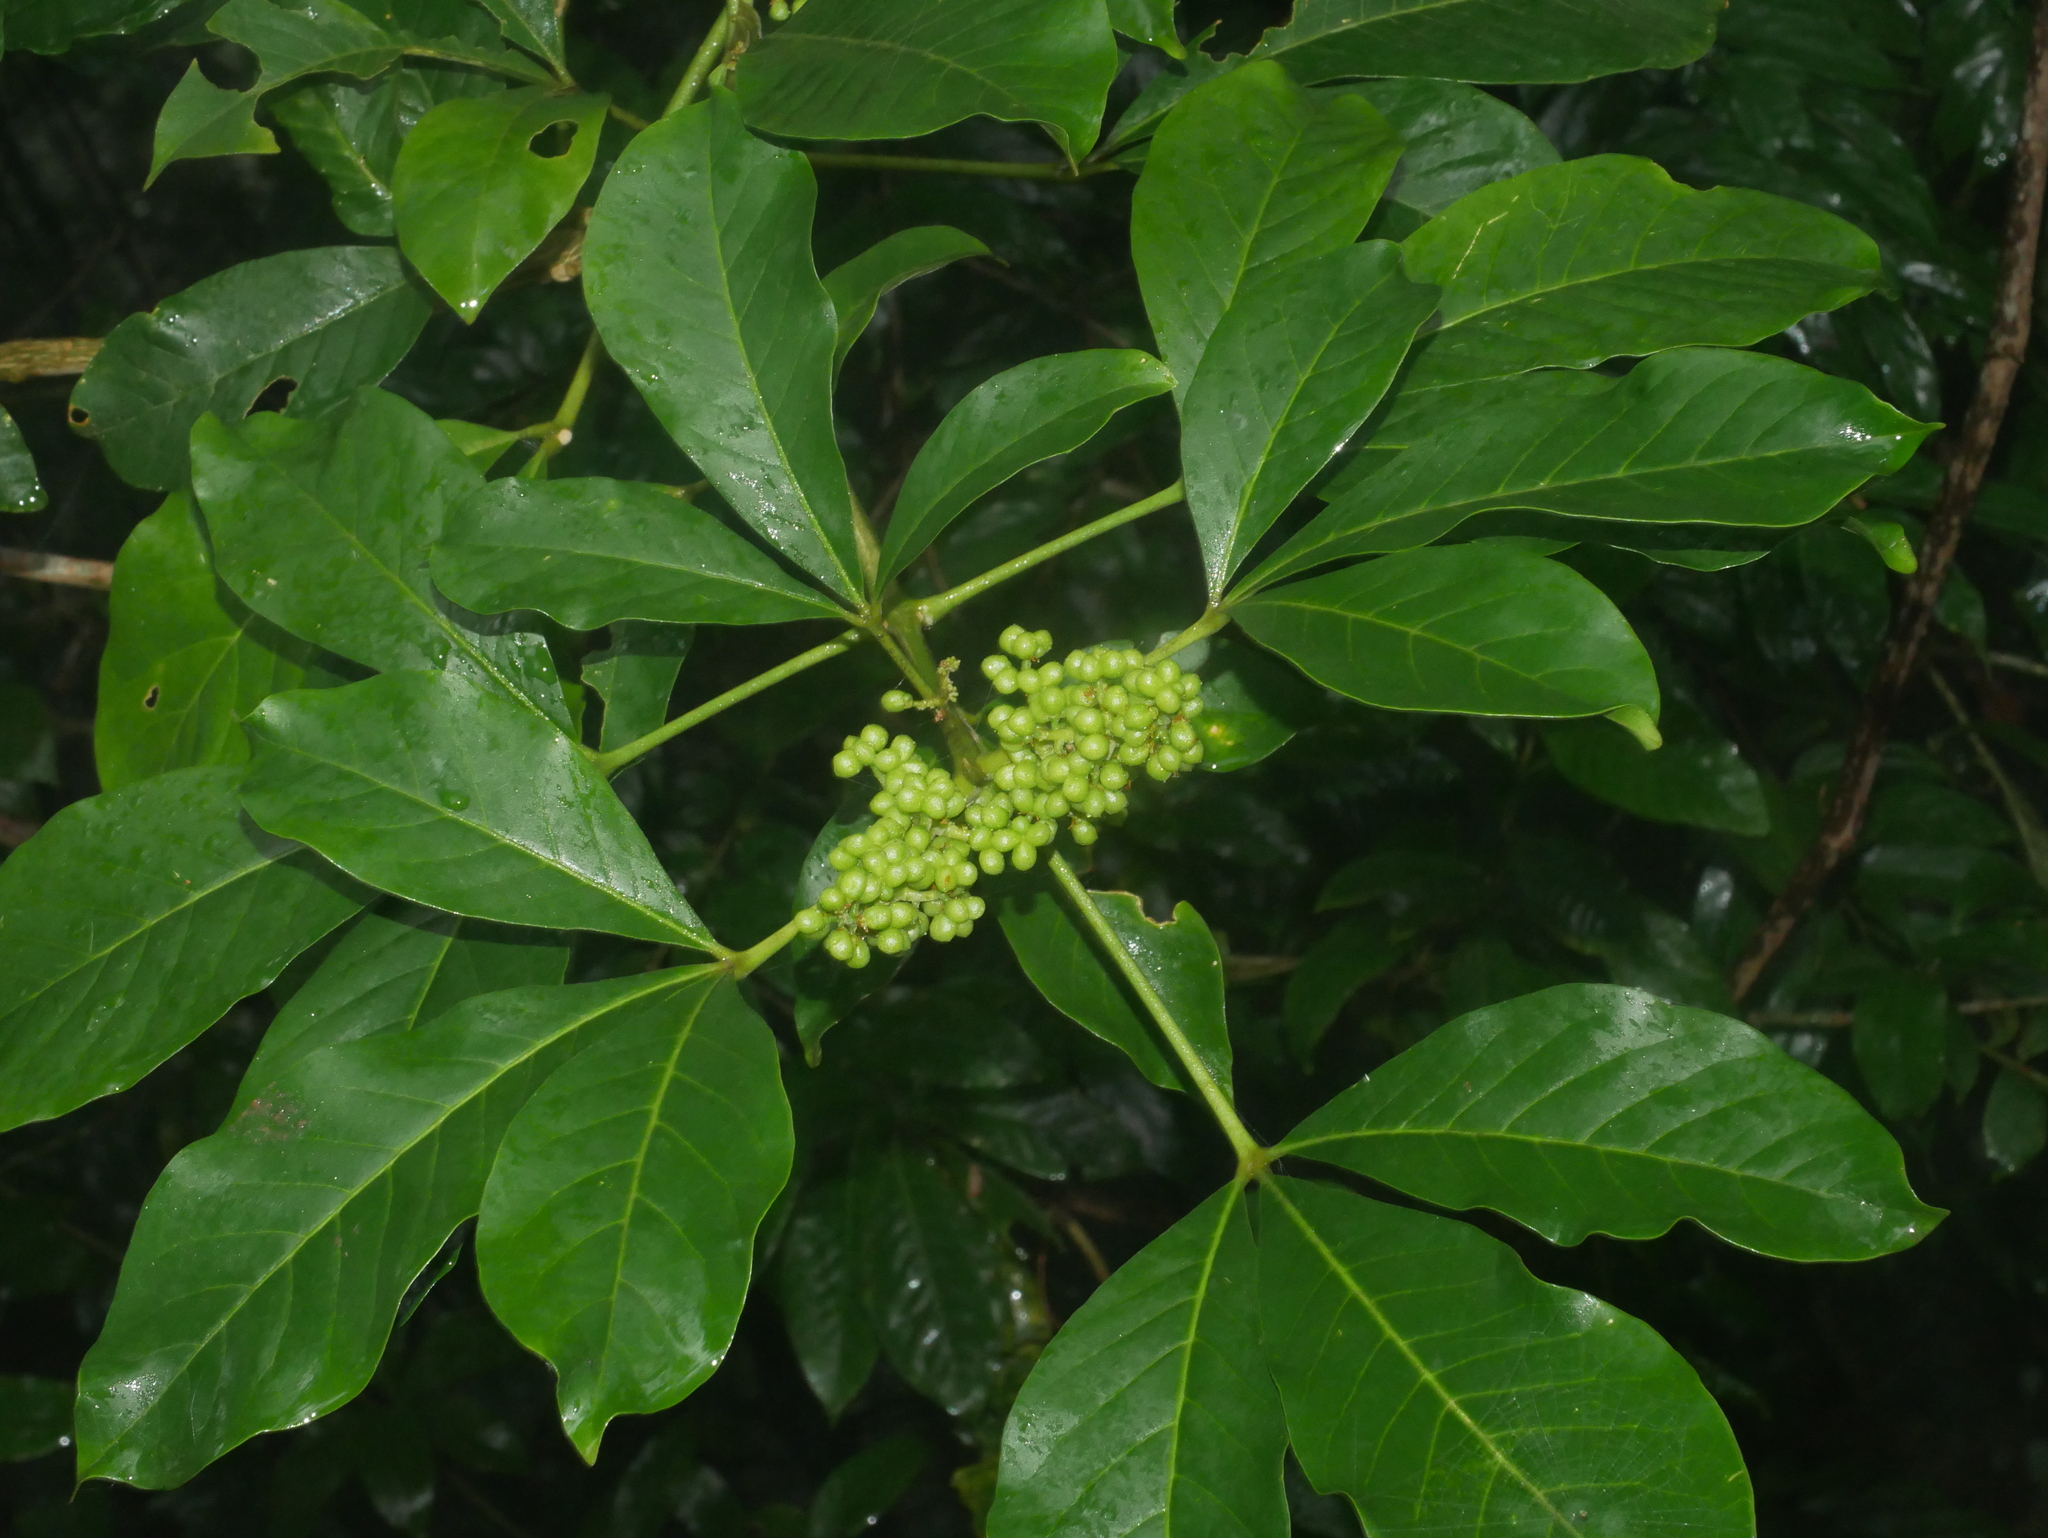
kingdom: Plantae
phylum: Tracheophyta
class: Magnoliopsida
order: Sapindales
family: Rutaceae
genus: Melicope
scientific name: Melicope triphylla
